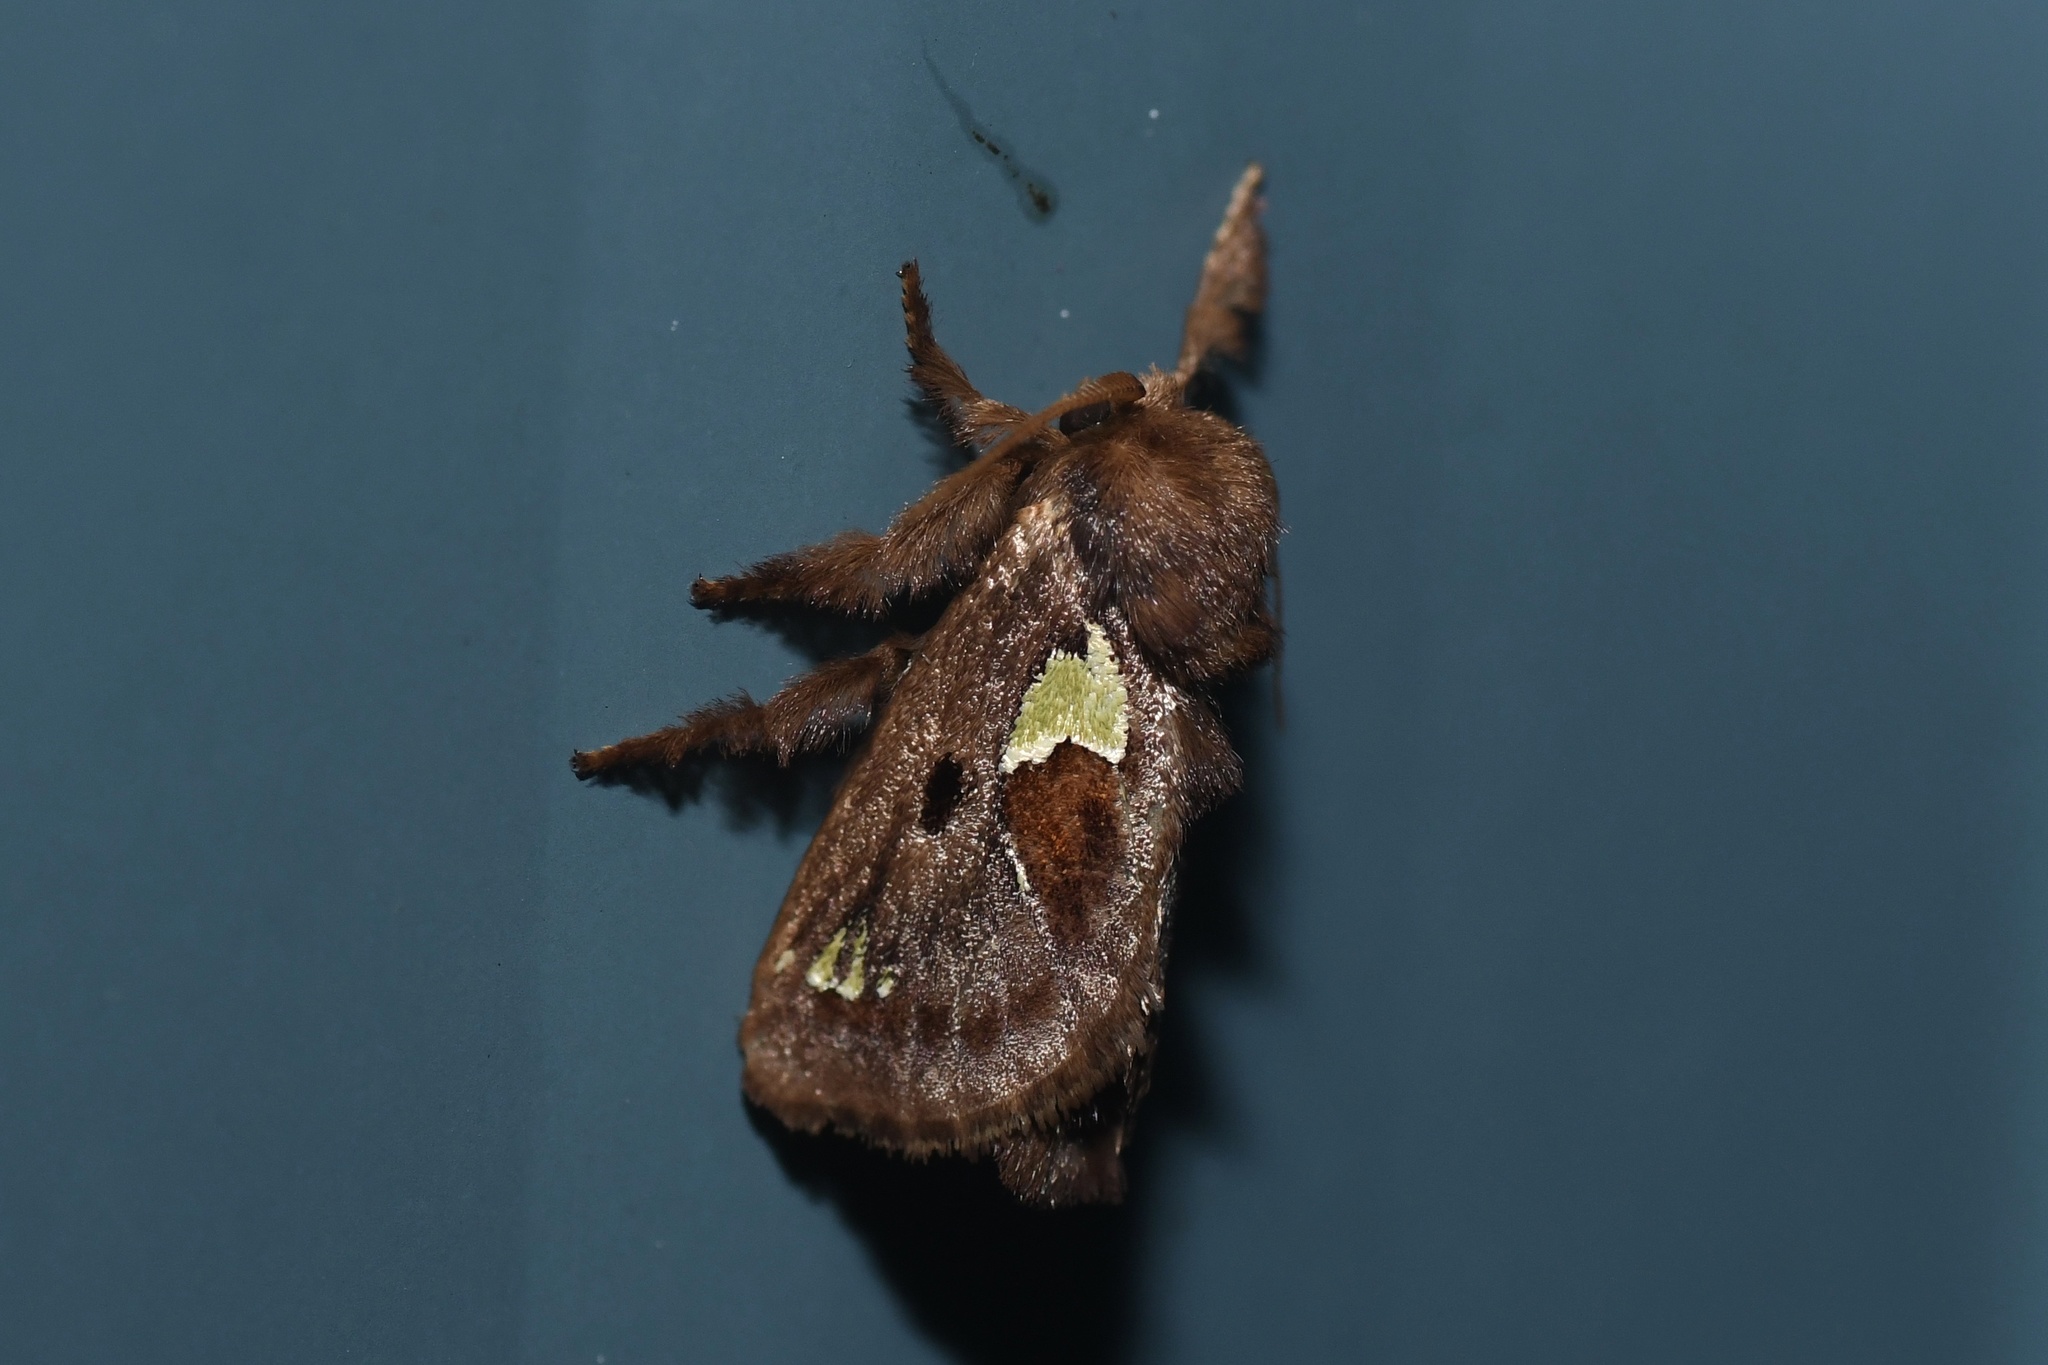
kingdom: Animalia
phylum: Arthropoda
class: Insecta
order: Lepidoptera
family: Limacodidae
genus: Euclea
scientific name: Euclea delphinii
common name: Spiny oak-slug moth
